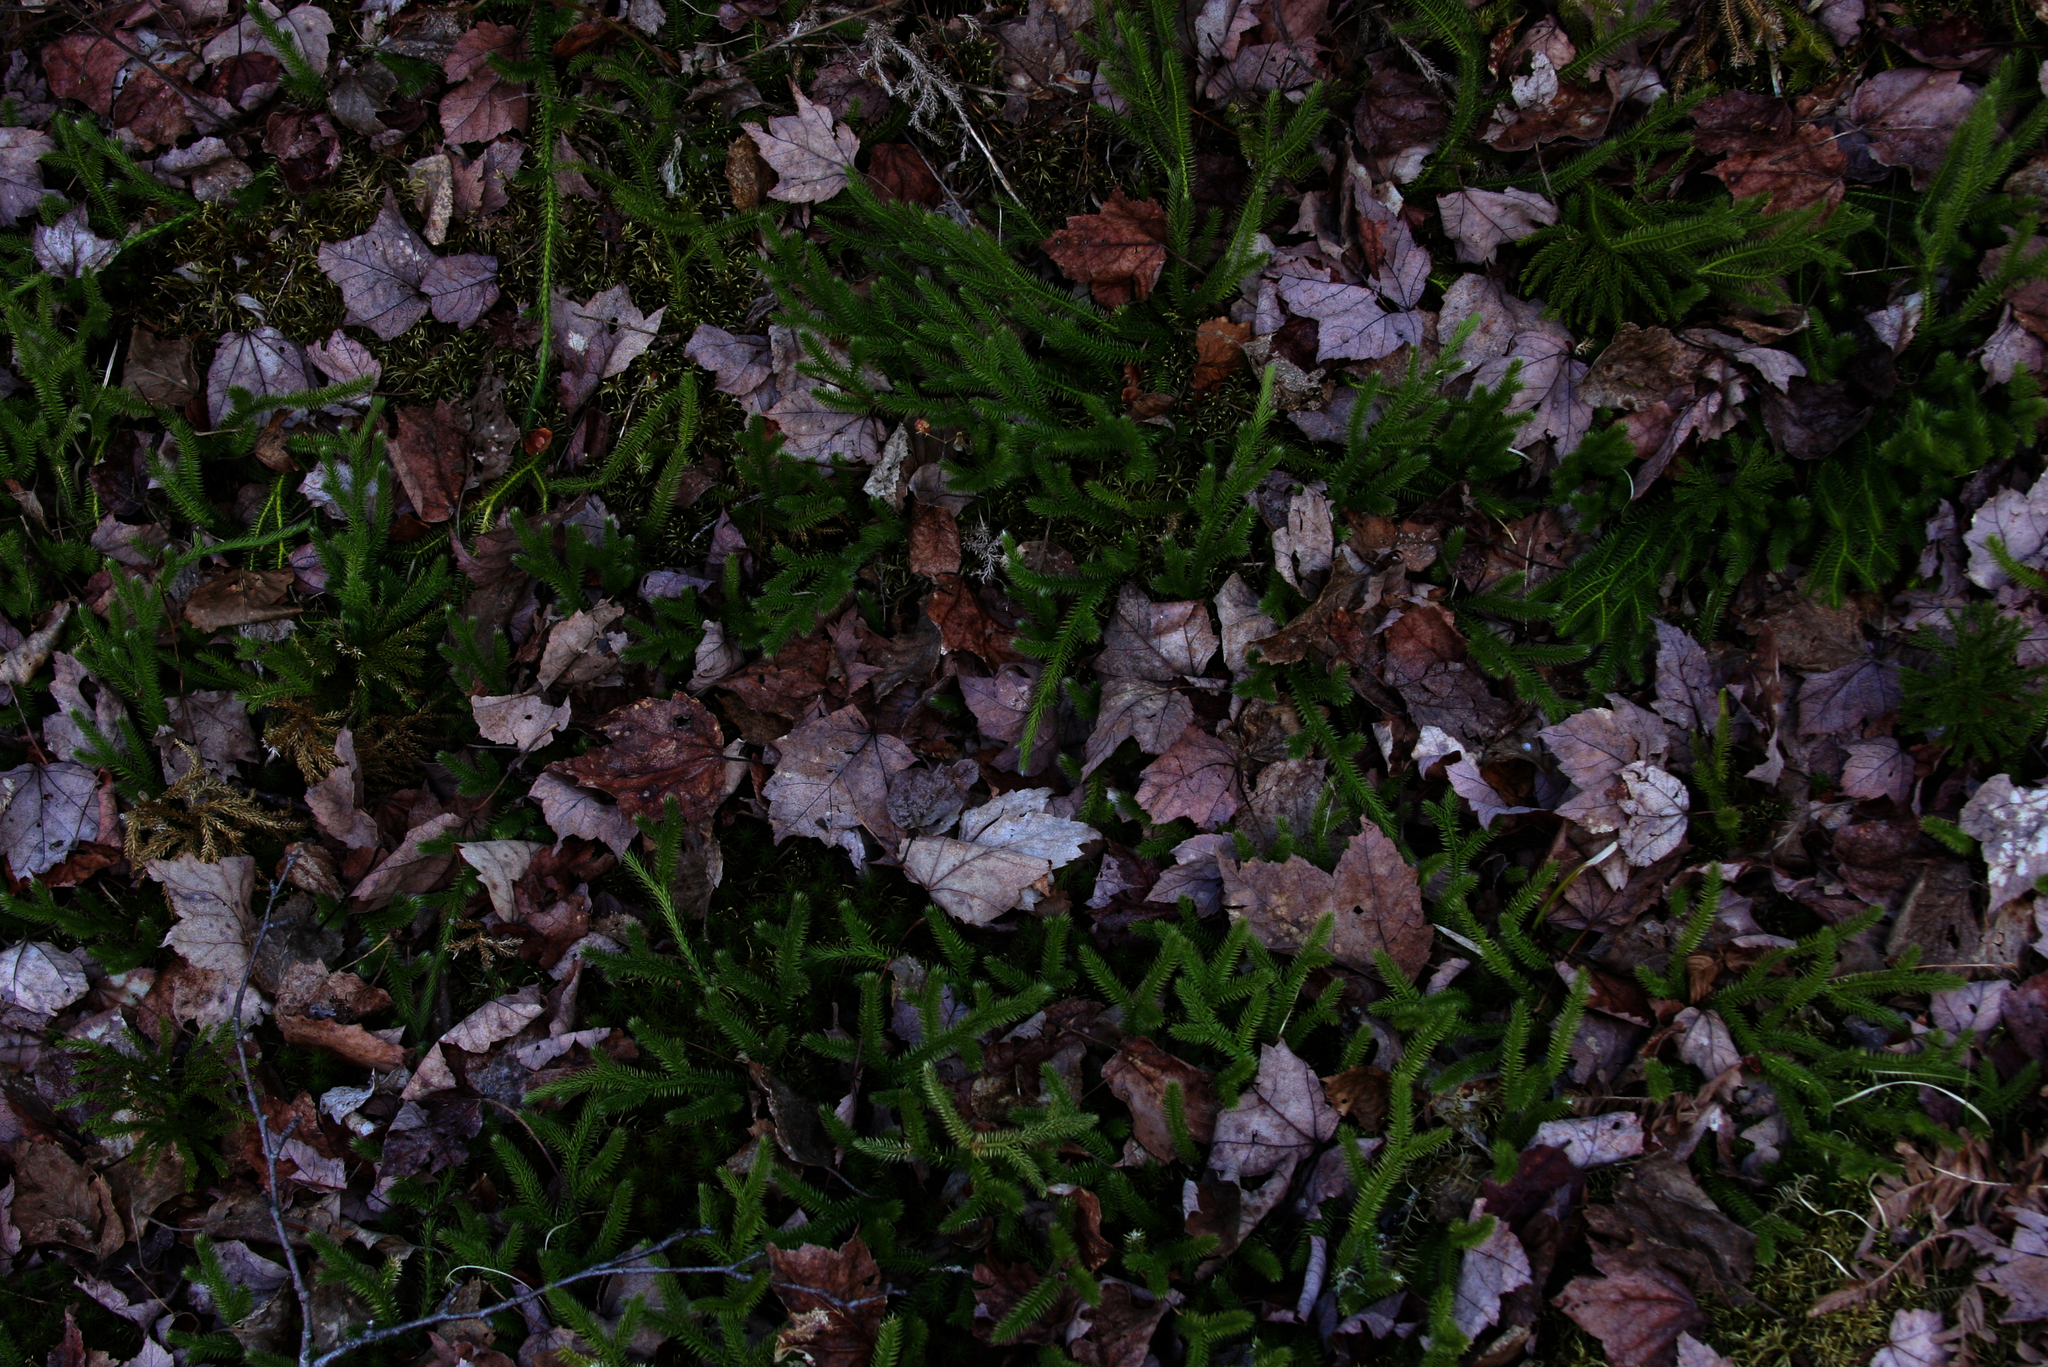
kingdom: Plantae
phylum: Tracheophyta
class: Lycopodiopsida
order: Lycopodiales
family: Lycopodiaceae
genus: Lycopodium
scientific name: Lycopodium clavatum
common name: Stag's-horn clubmoss
